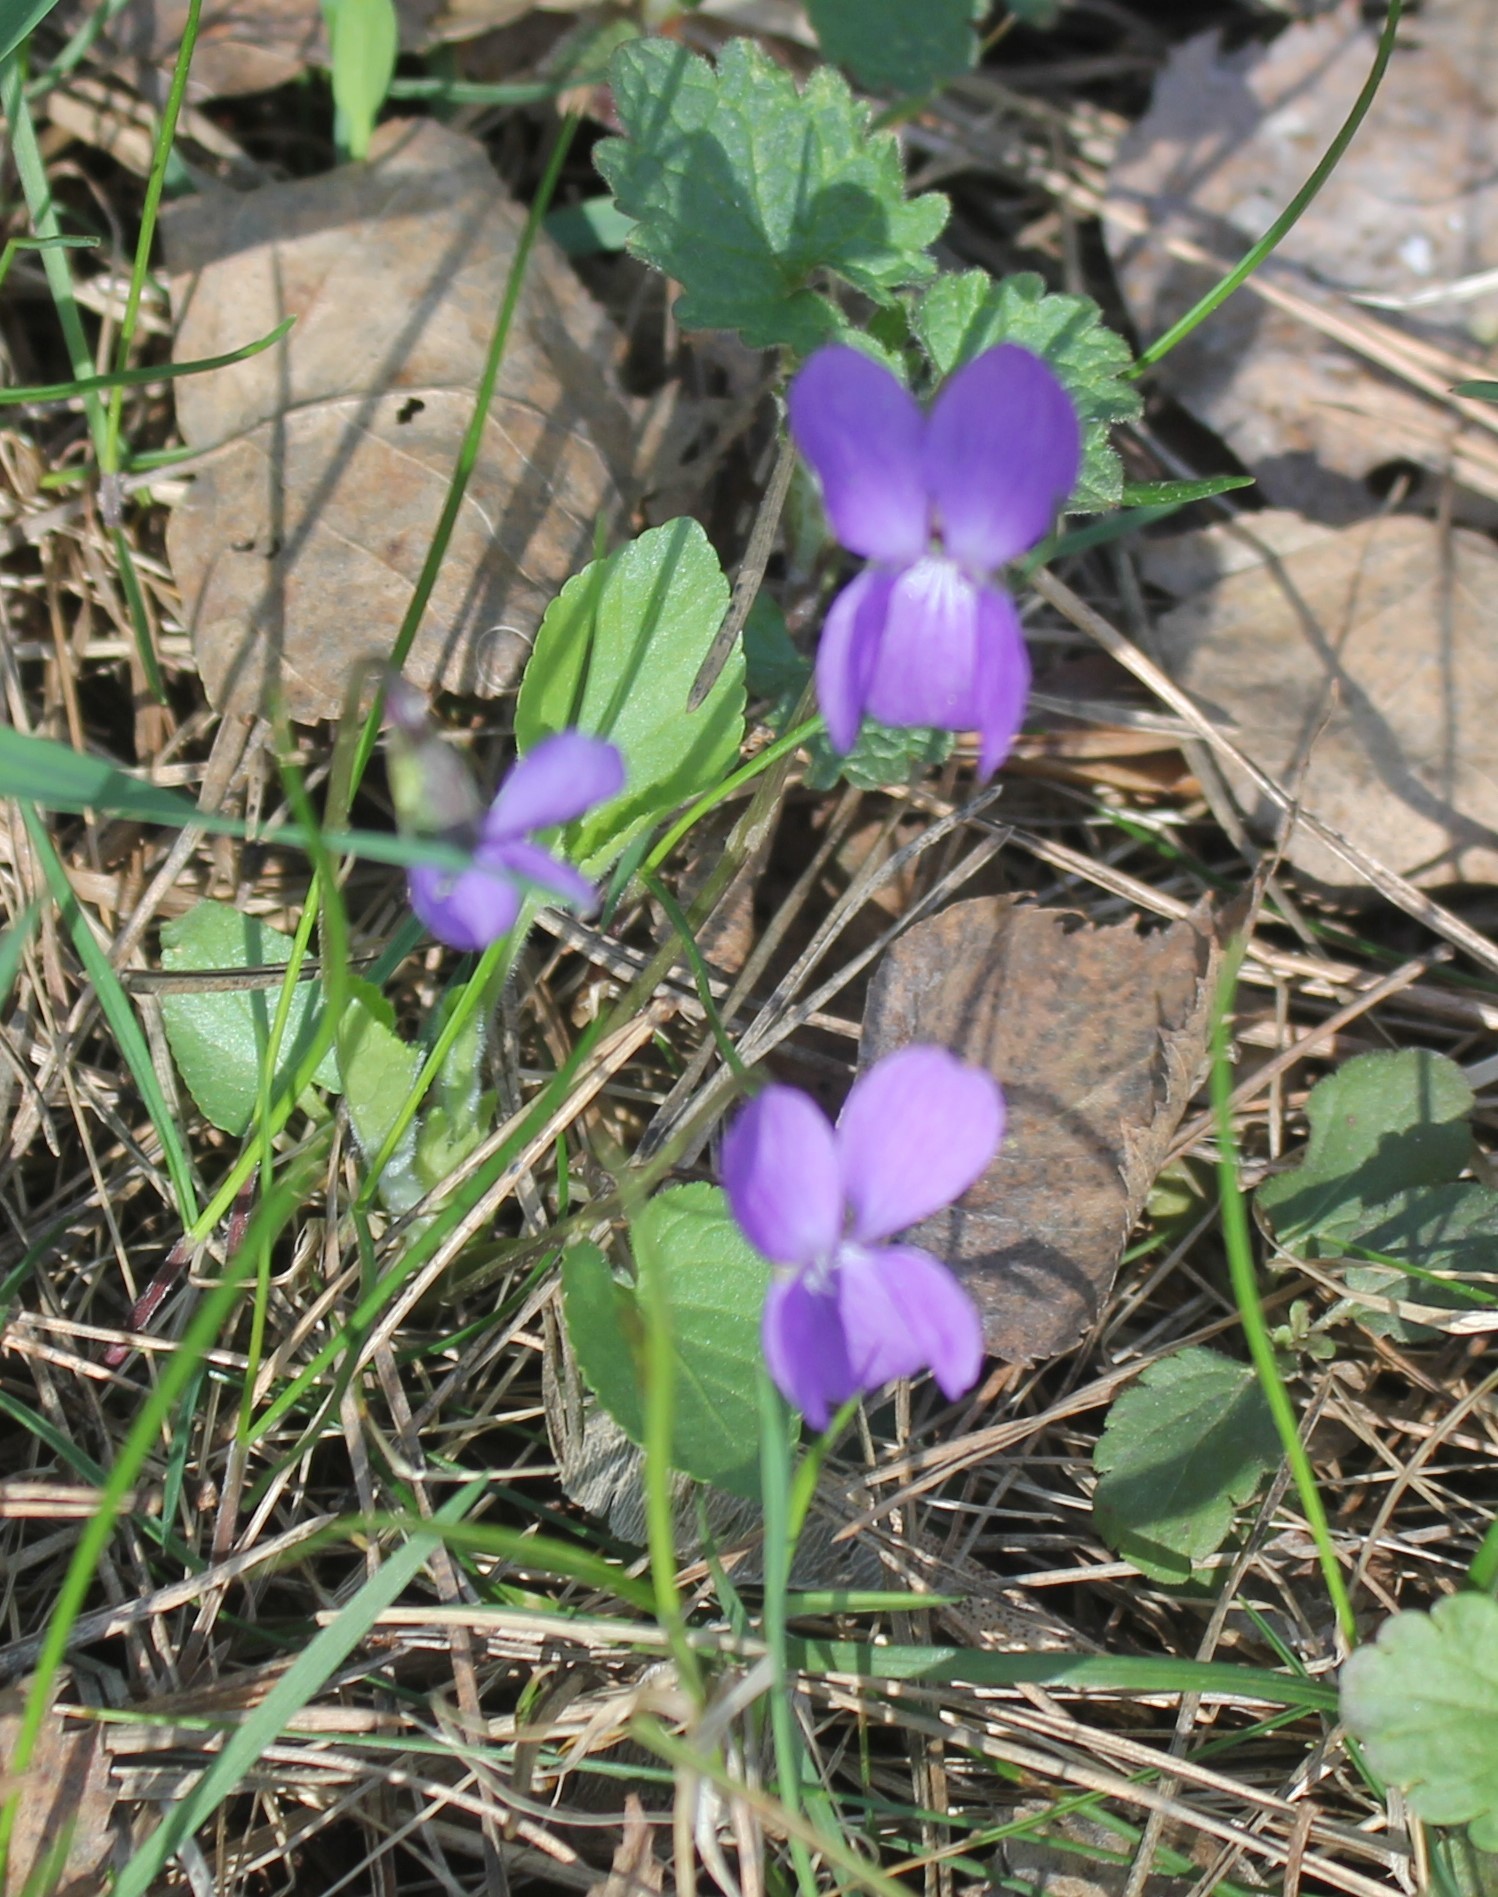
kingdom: Plantae
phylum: Tracheophyta
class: Magnoliopsida
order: Malpighiales
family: Violaceae
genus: Viola
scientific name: Viola hirta
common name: Hairy violet
